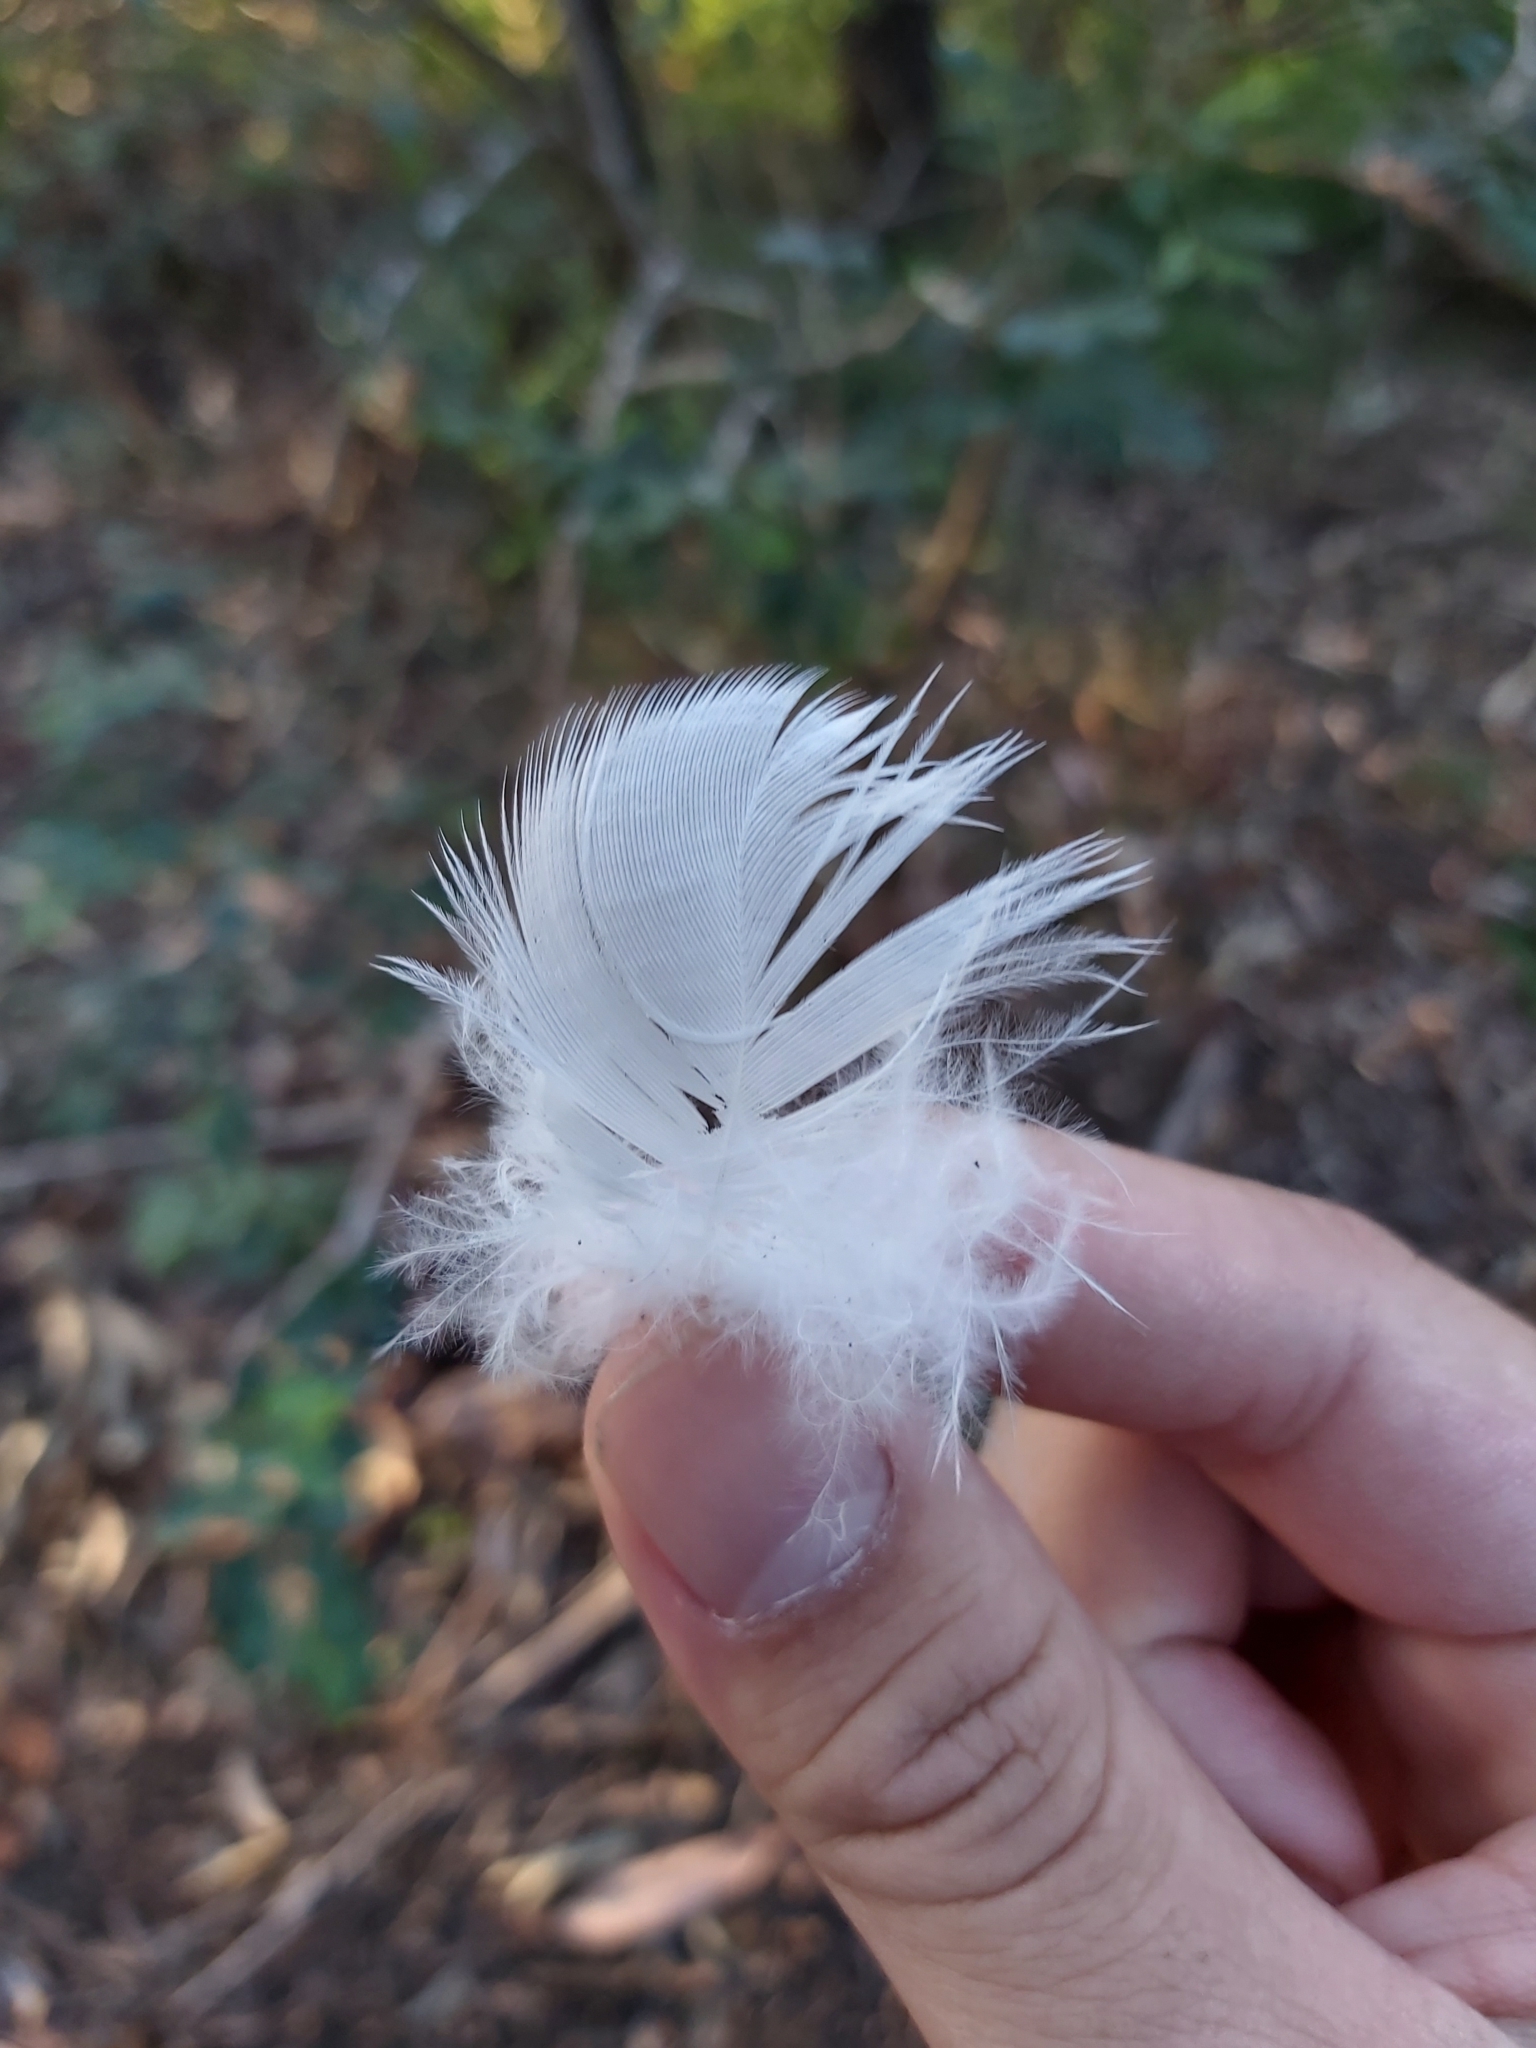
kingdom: Animalia
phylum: Chordata
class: Aves
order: Psittaciformes
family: Psittacidae
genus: Cacatua
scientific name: Cacatua galerita
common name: Sulphur-crested cockatoo
